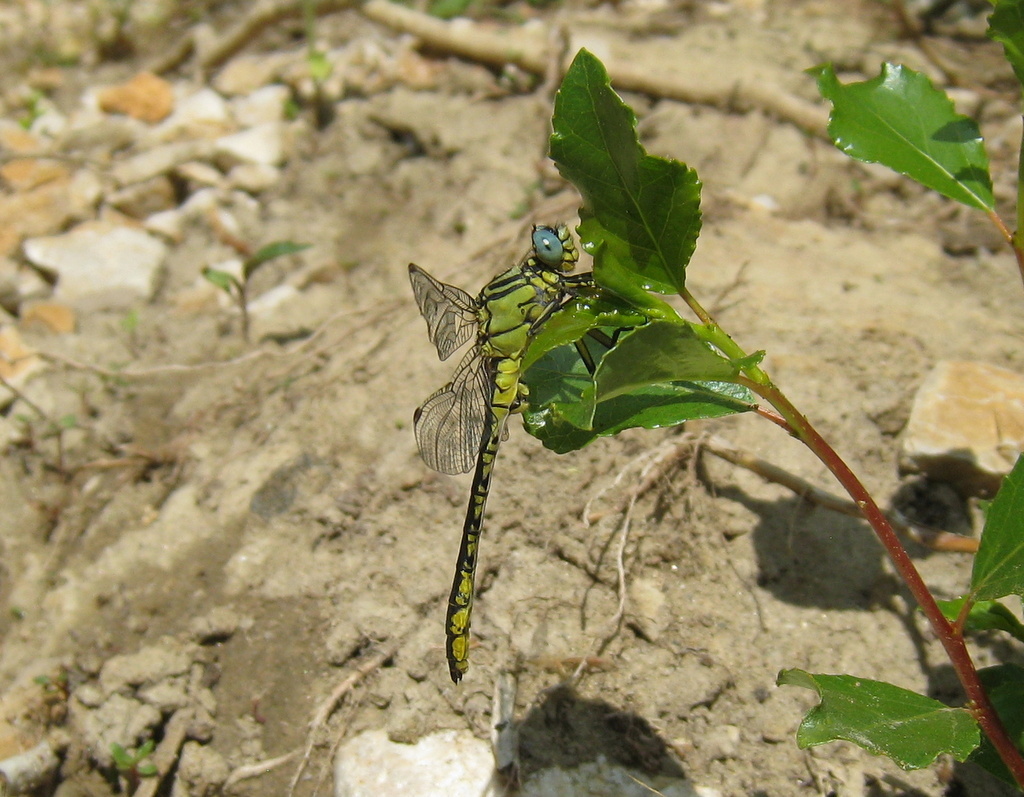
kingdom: Animalia
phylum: Arthropoda
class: Insecta
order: Odonata
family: Gomphidae
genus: Gomphus
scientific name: Gomphus simillimus
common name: Yellow clubtail
